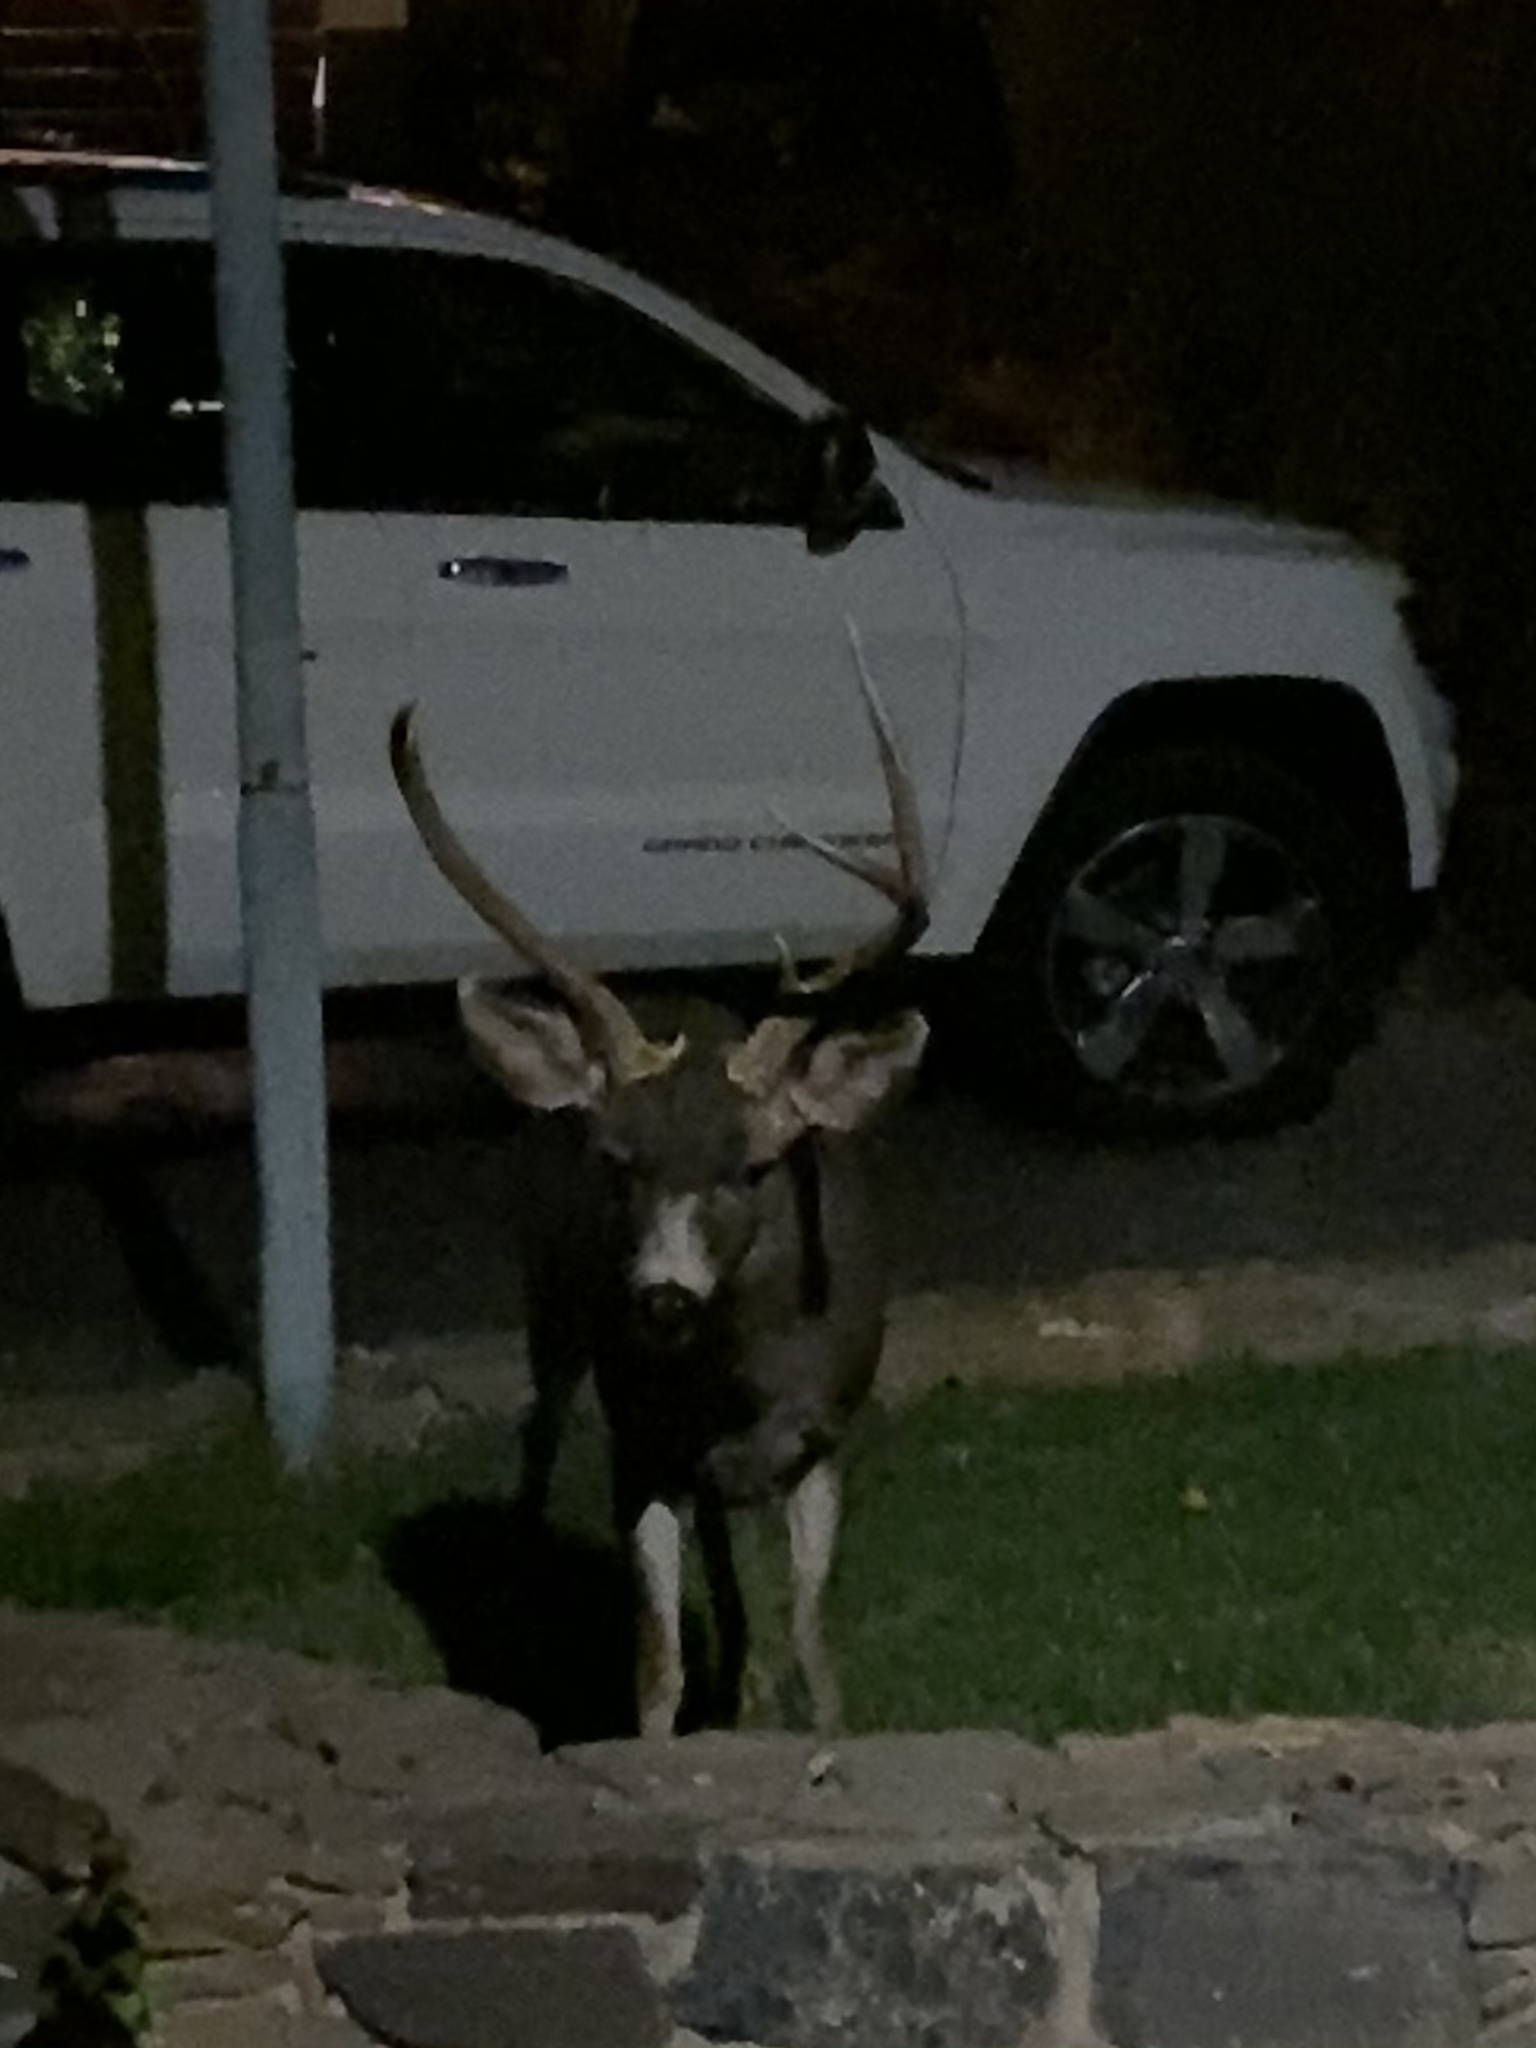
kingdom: Animalia
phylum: Chordata
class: Mammalia
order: Artiodactyla
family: Cervidae
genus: Odocoileus
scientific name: Odocoileus hemionus
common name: Mule deer
